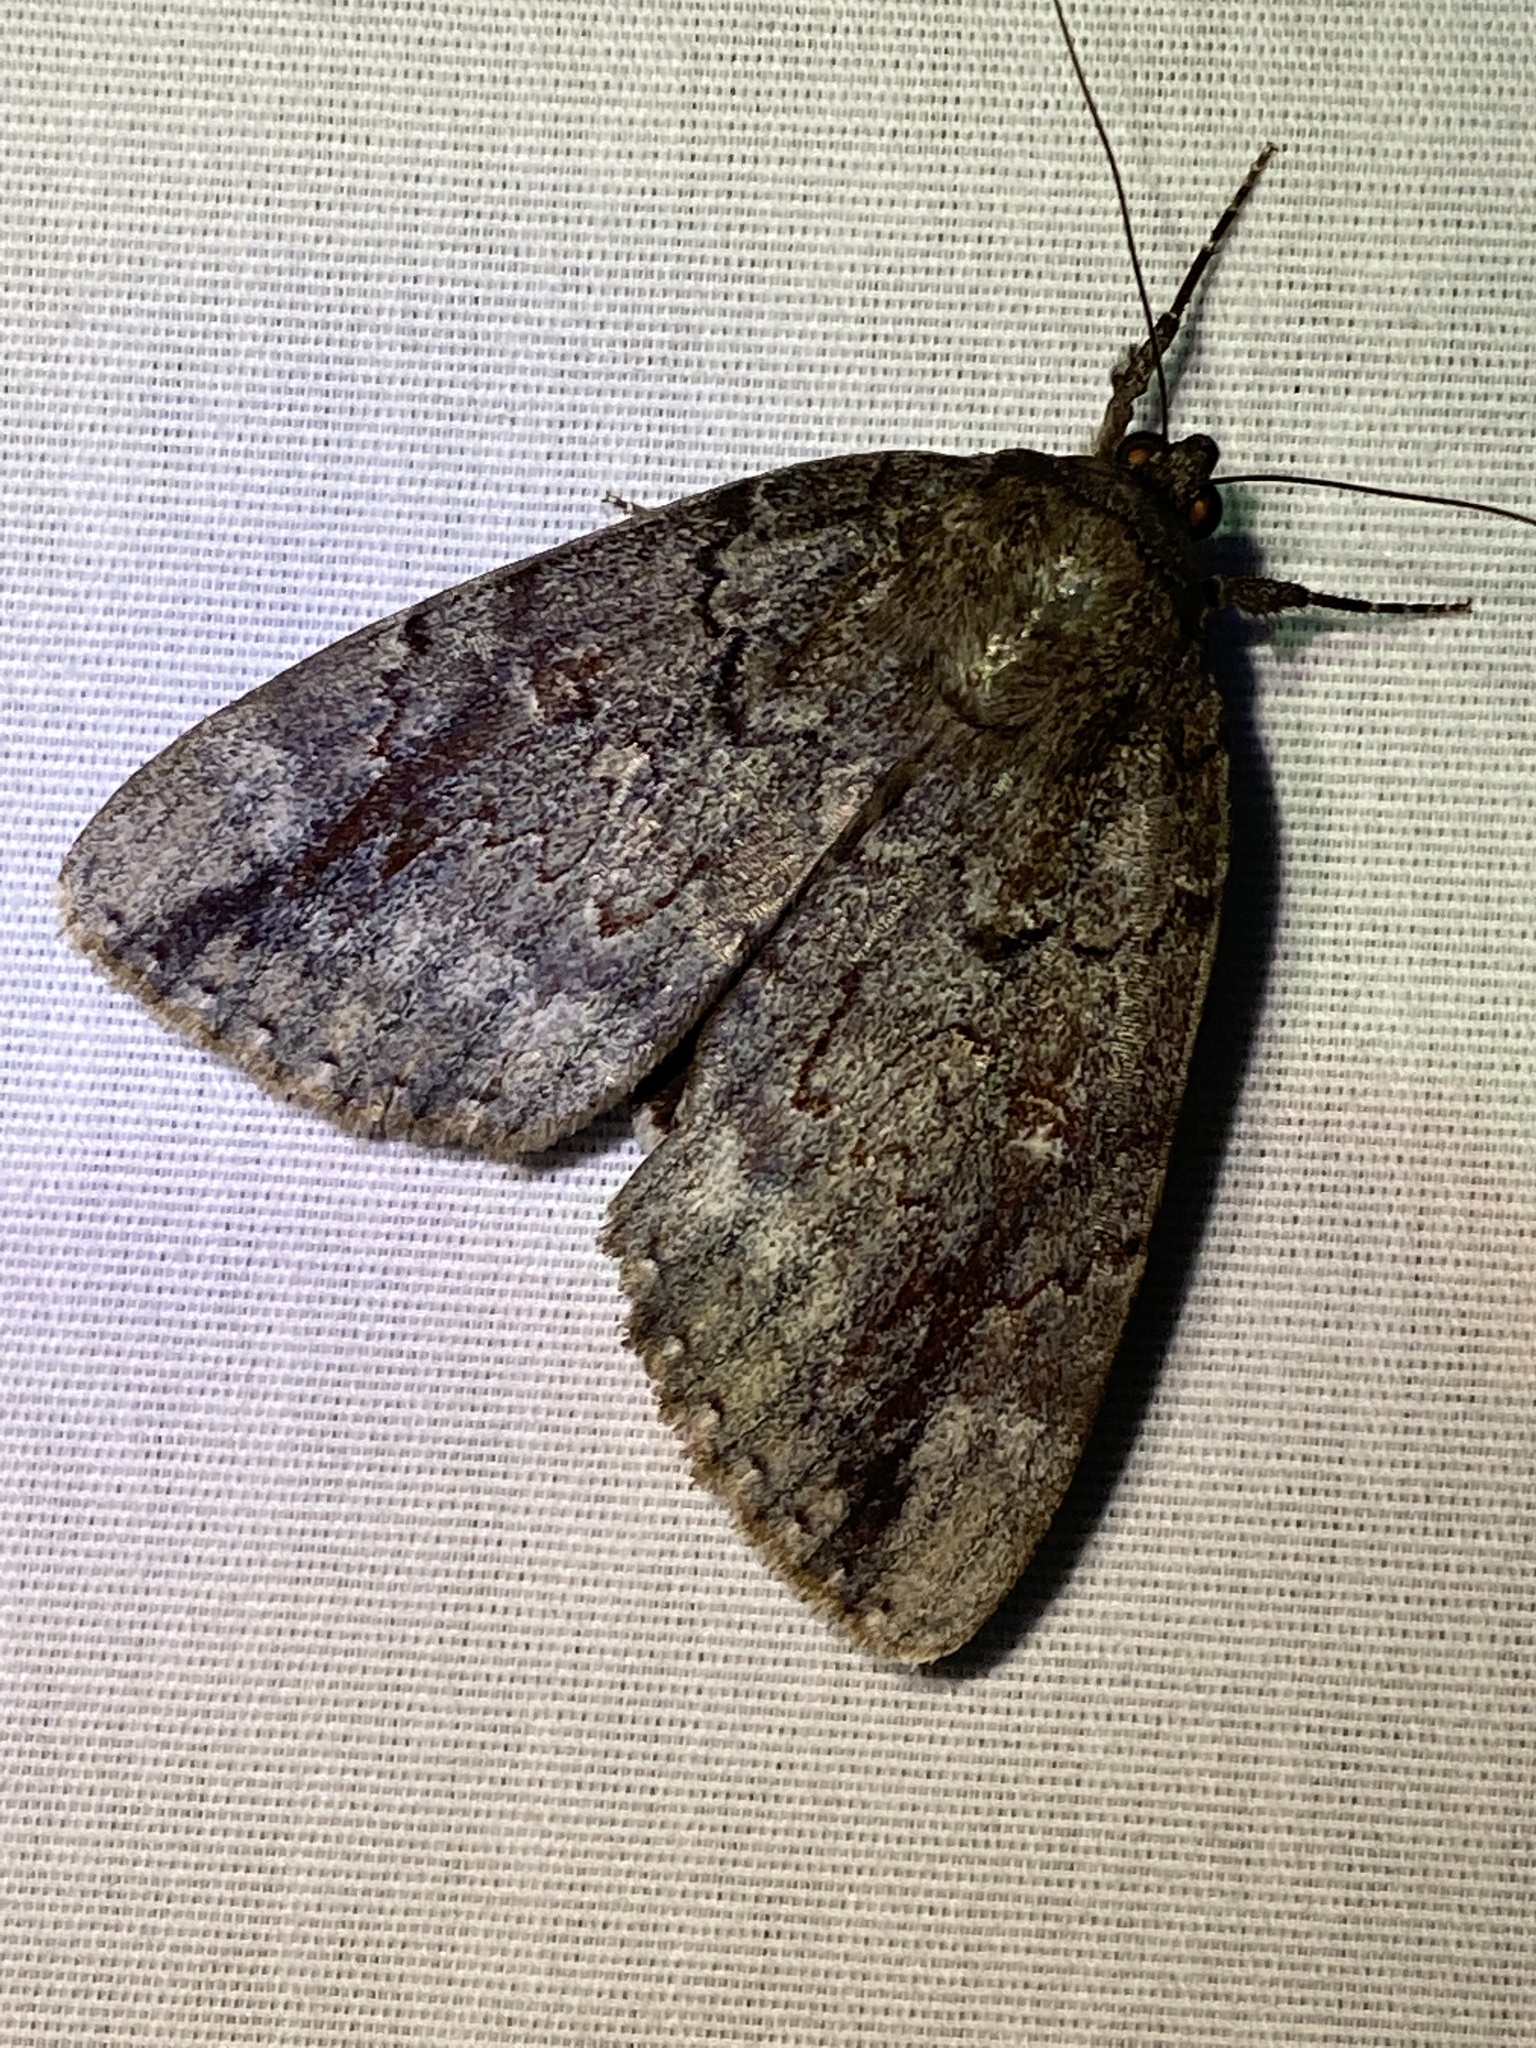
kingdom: Animalia
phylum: Arthropoda
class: Insecta
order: Lepidoptera
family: Erebidae
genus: Catocala
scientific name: Catocala residua
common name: Residua underwing
